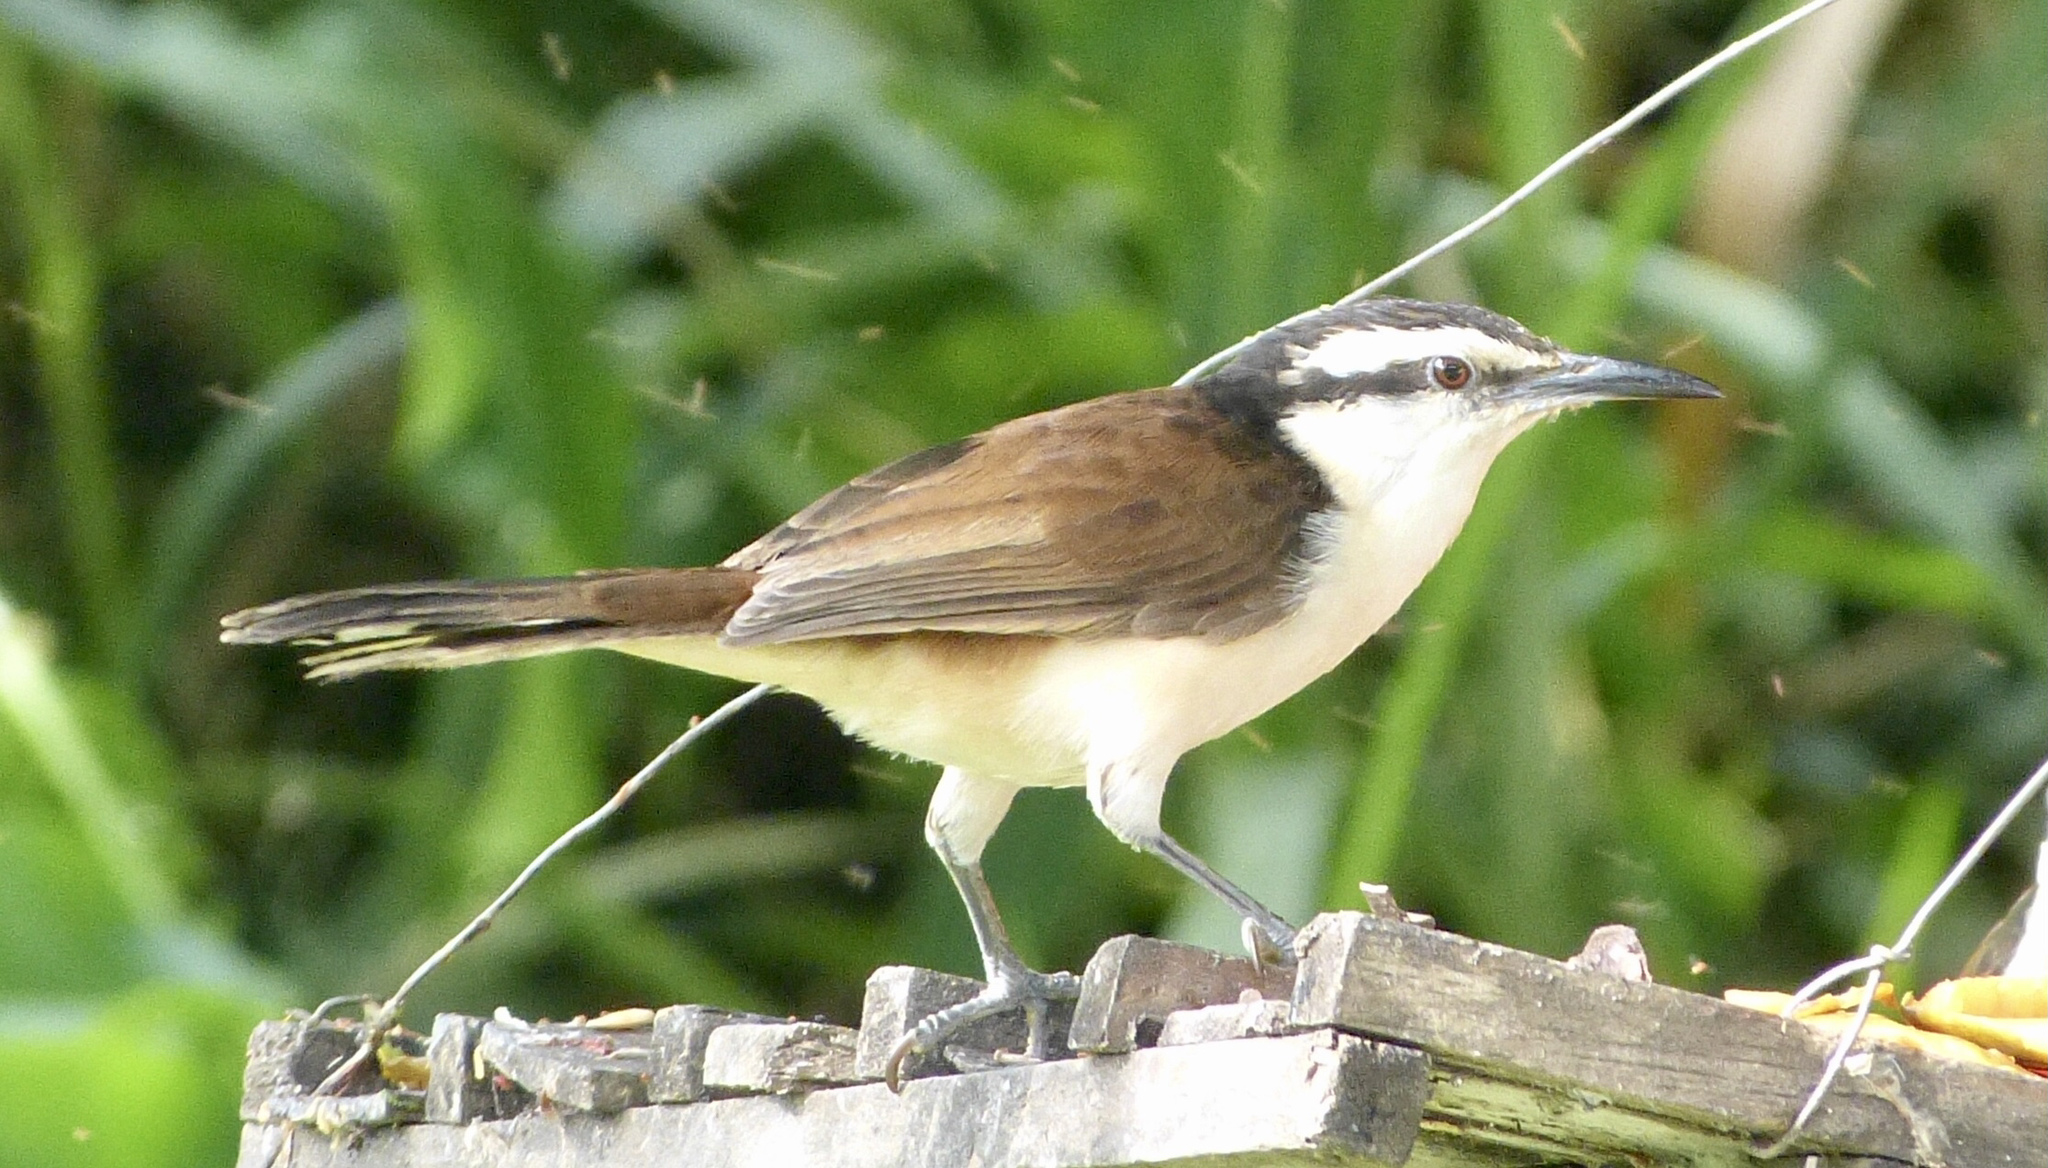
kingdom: Animalia
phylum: Chordata
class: Aves
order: Passeriformes
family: Troglodytidae
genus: Campylorhynchus
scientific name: Campylorhynchus griseus
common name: Bicolored wren
